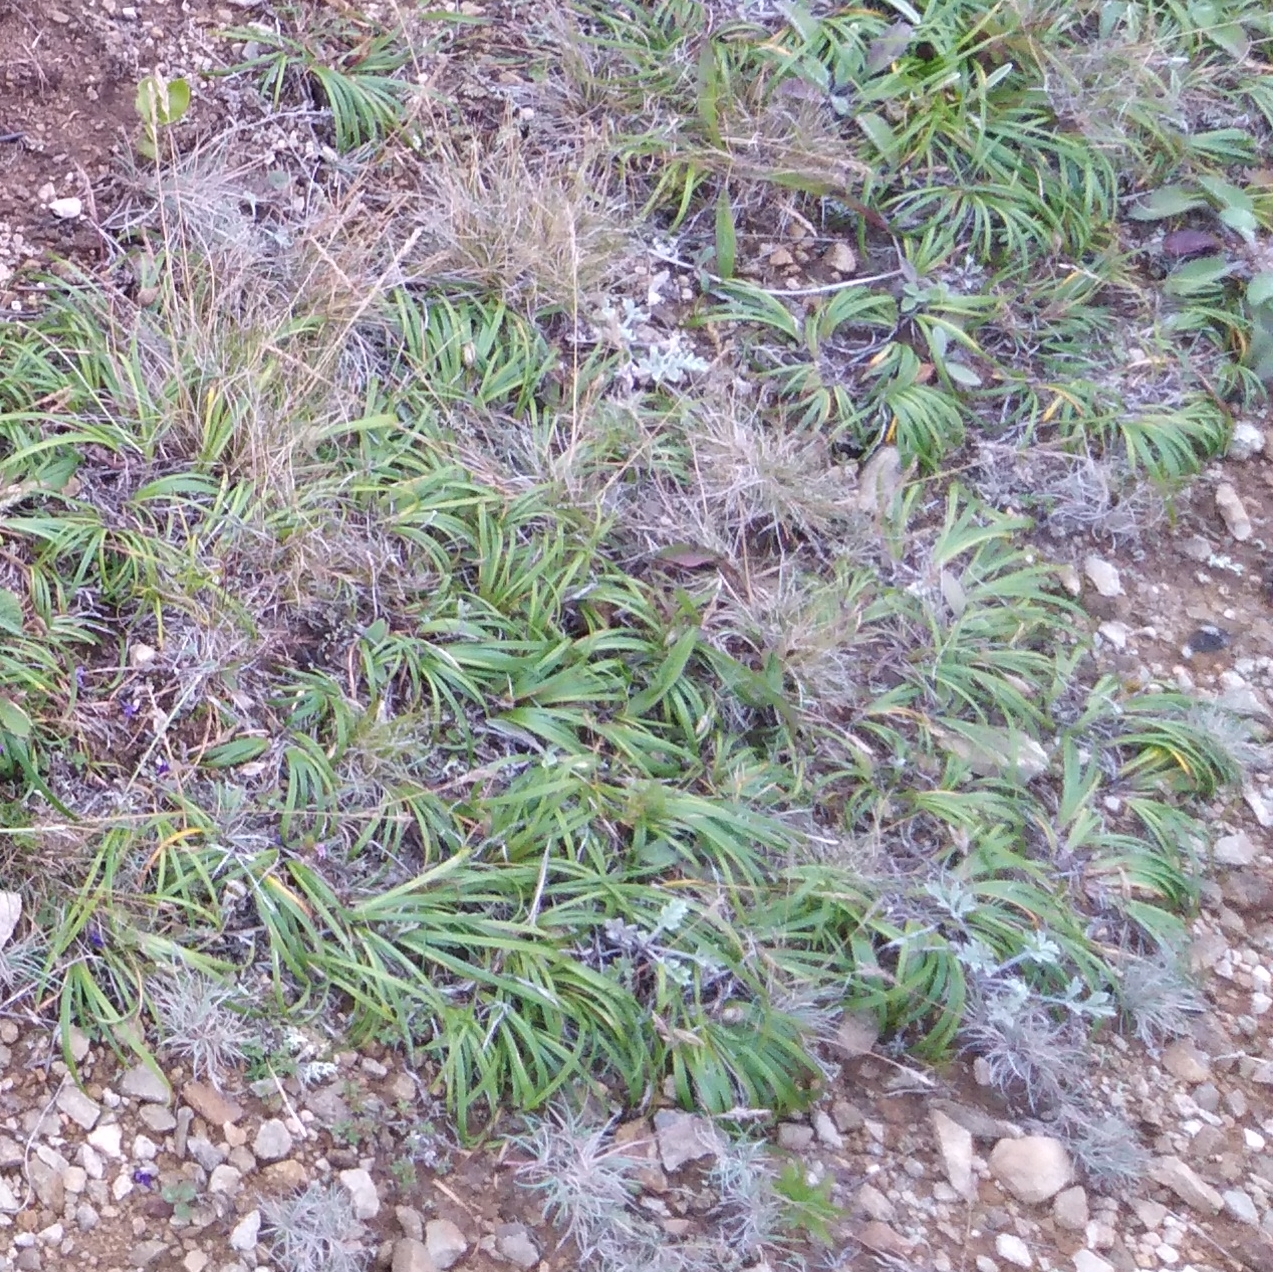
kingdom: Plantae
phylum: Tracheophyta
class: Liliopsida
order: Asparagales
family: Iridaceae
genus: Iris
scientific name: Iris uniflora
